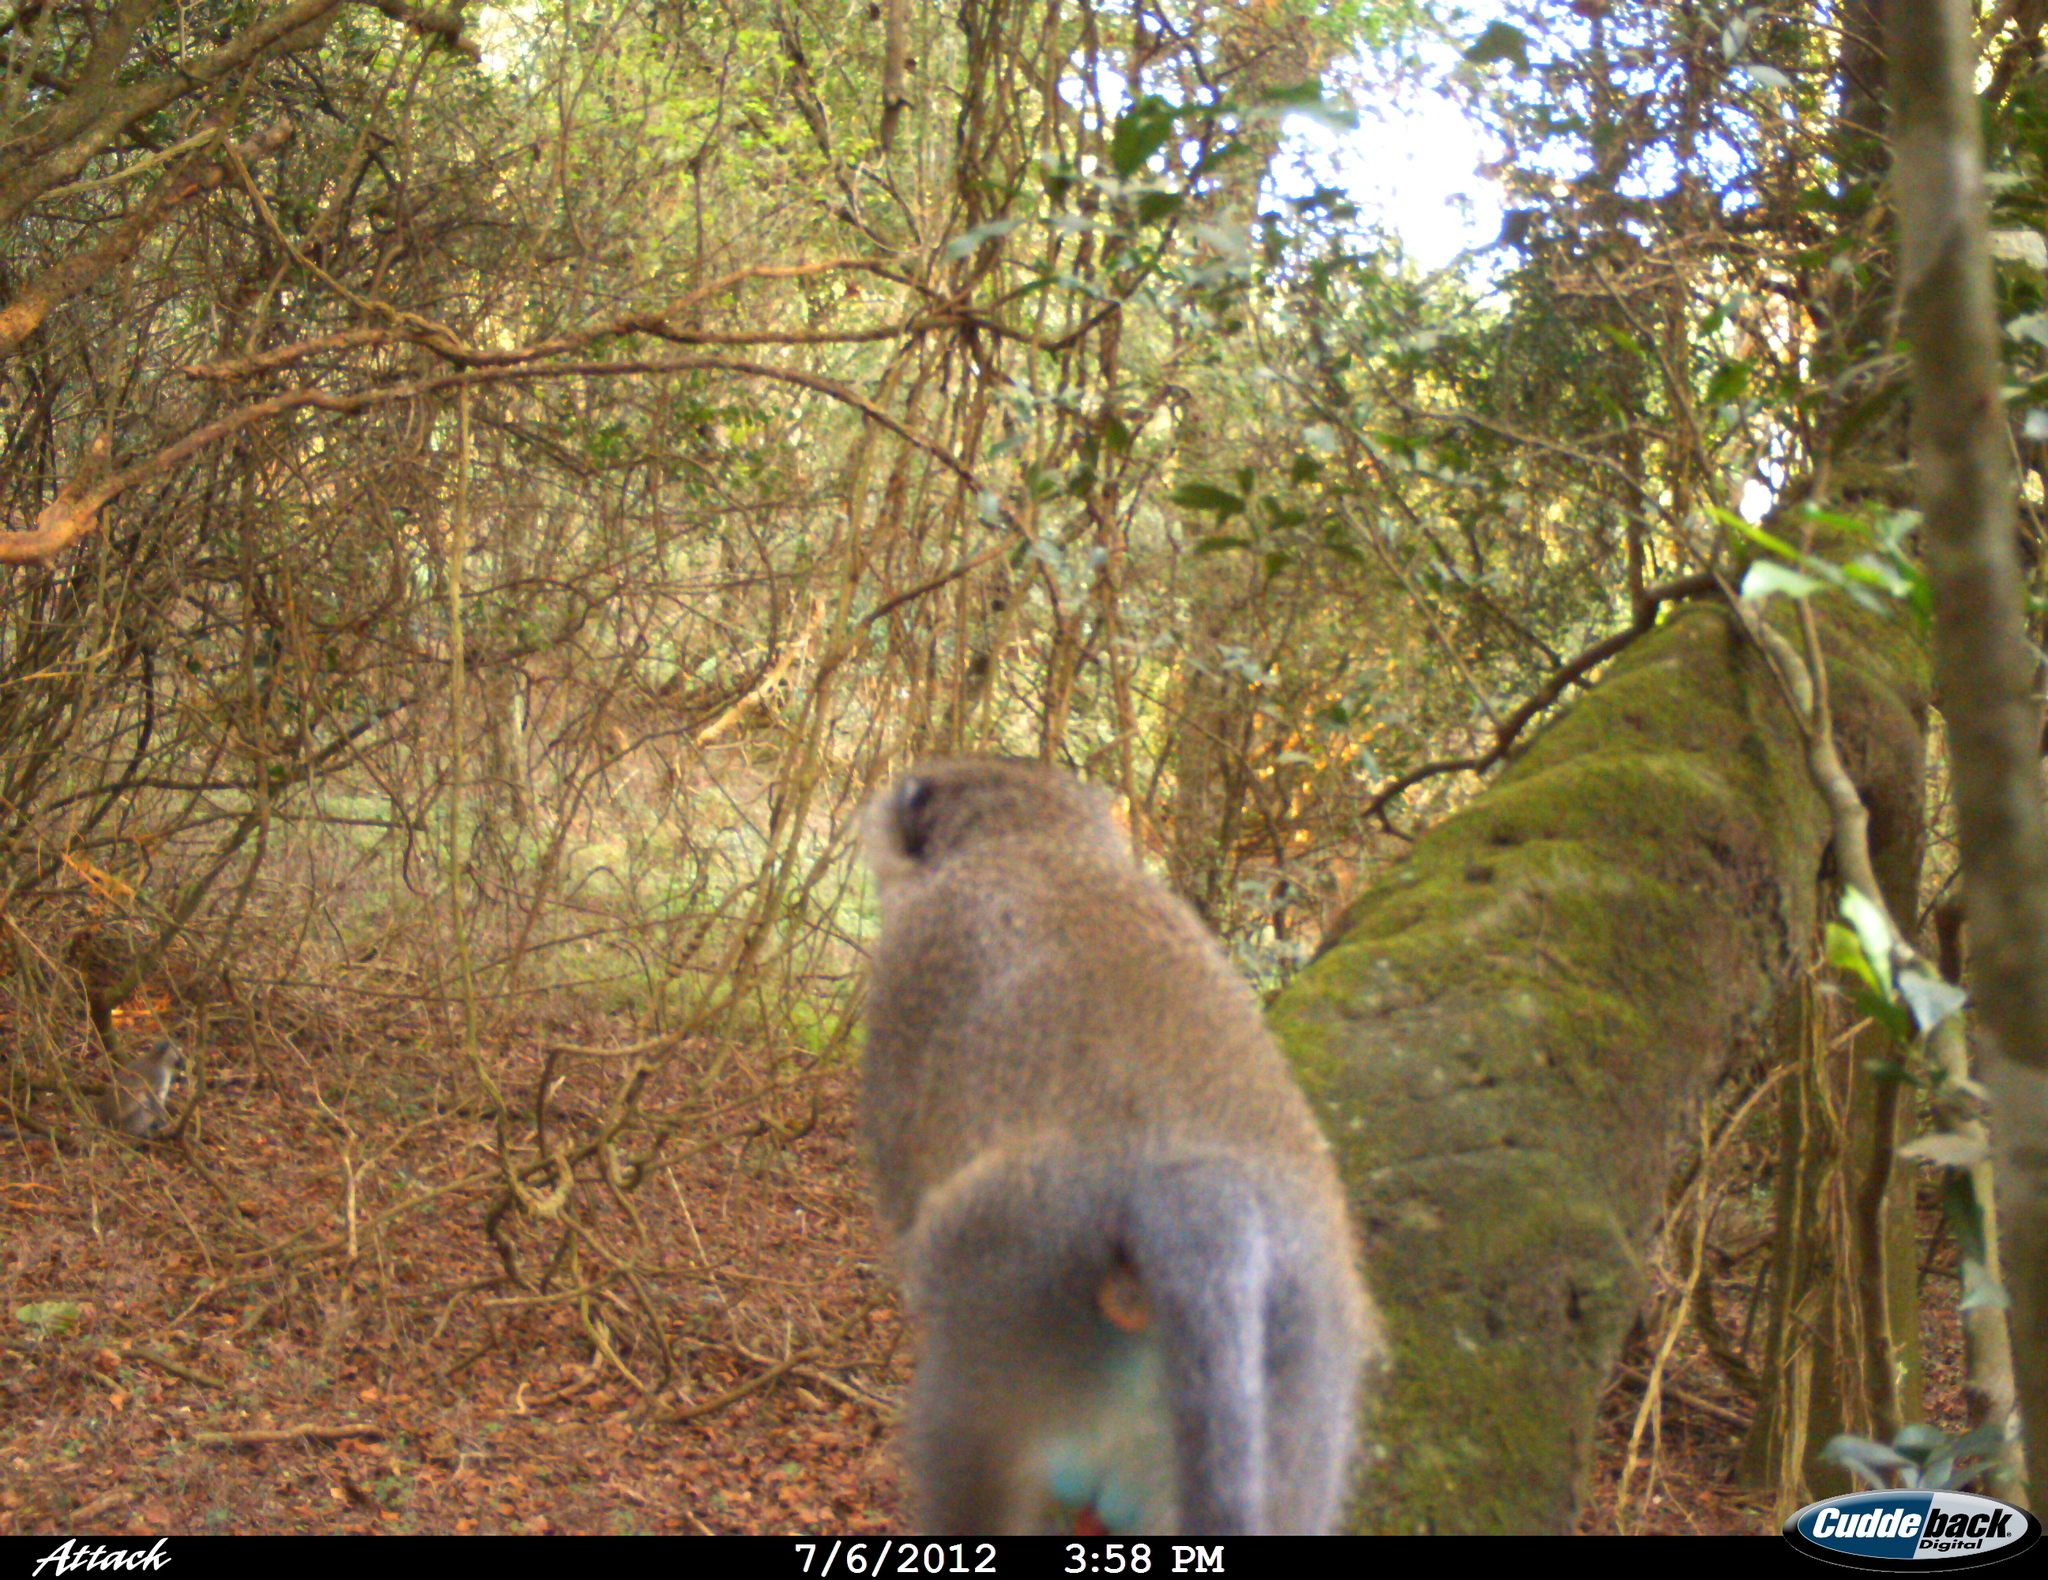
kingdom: Animalia
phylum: Chordata
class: Mammalia
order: Primates
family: Cercopithecidae
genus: Chlorocebus
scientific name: Chlorocebus pygerythrus
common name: Vervet monkey
